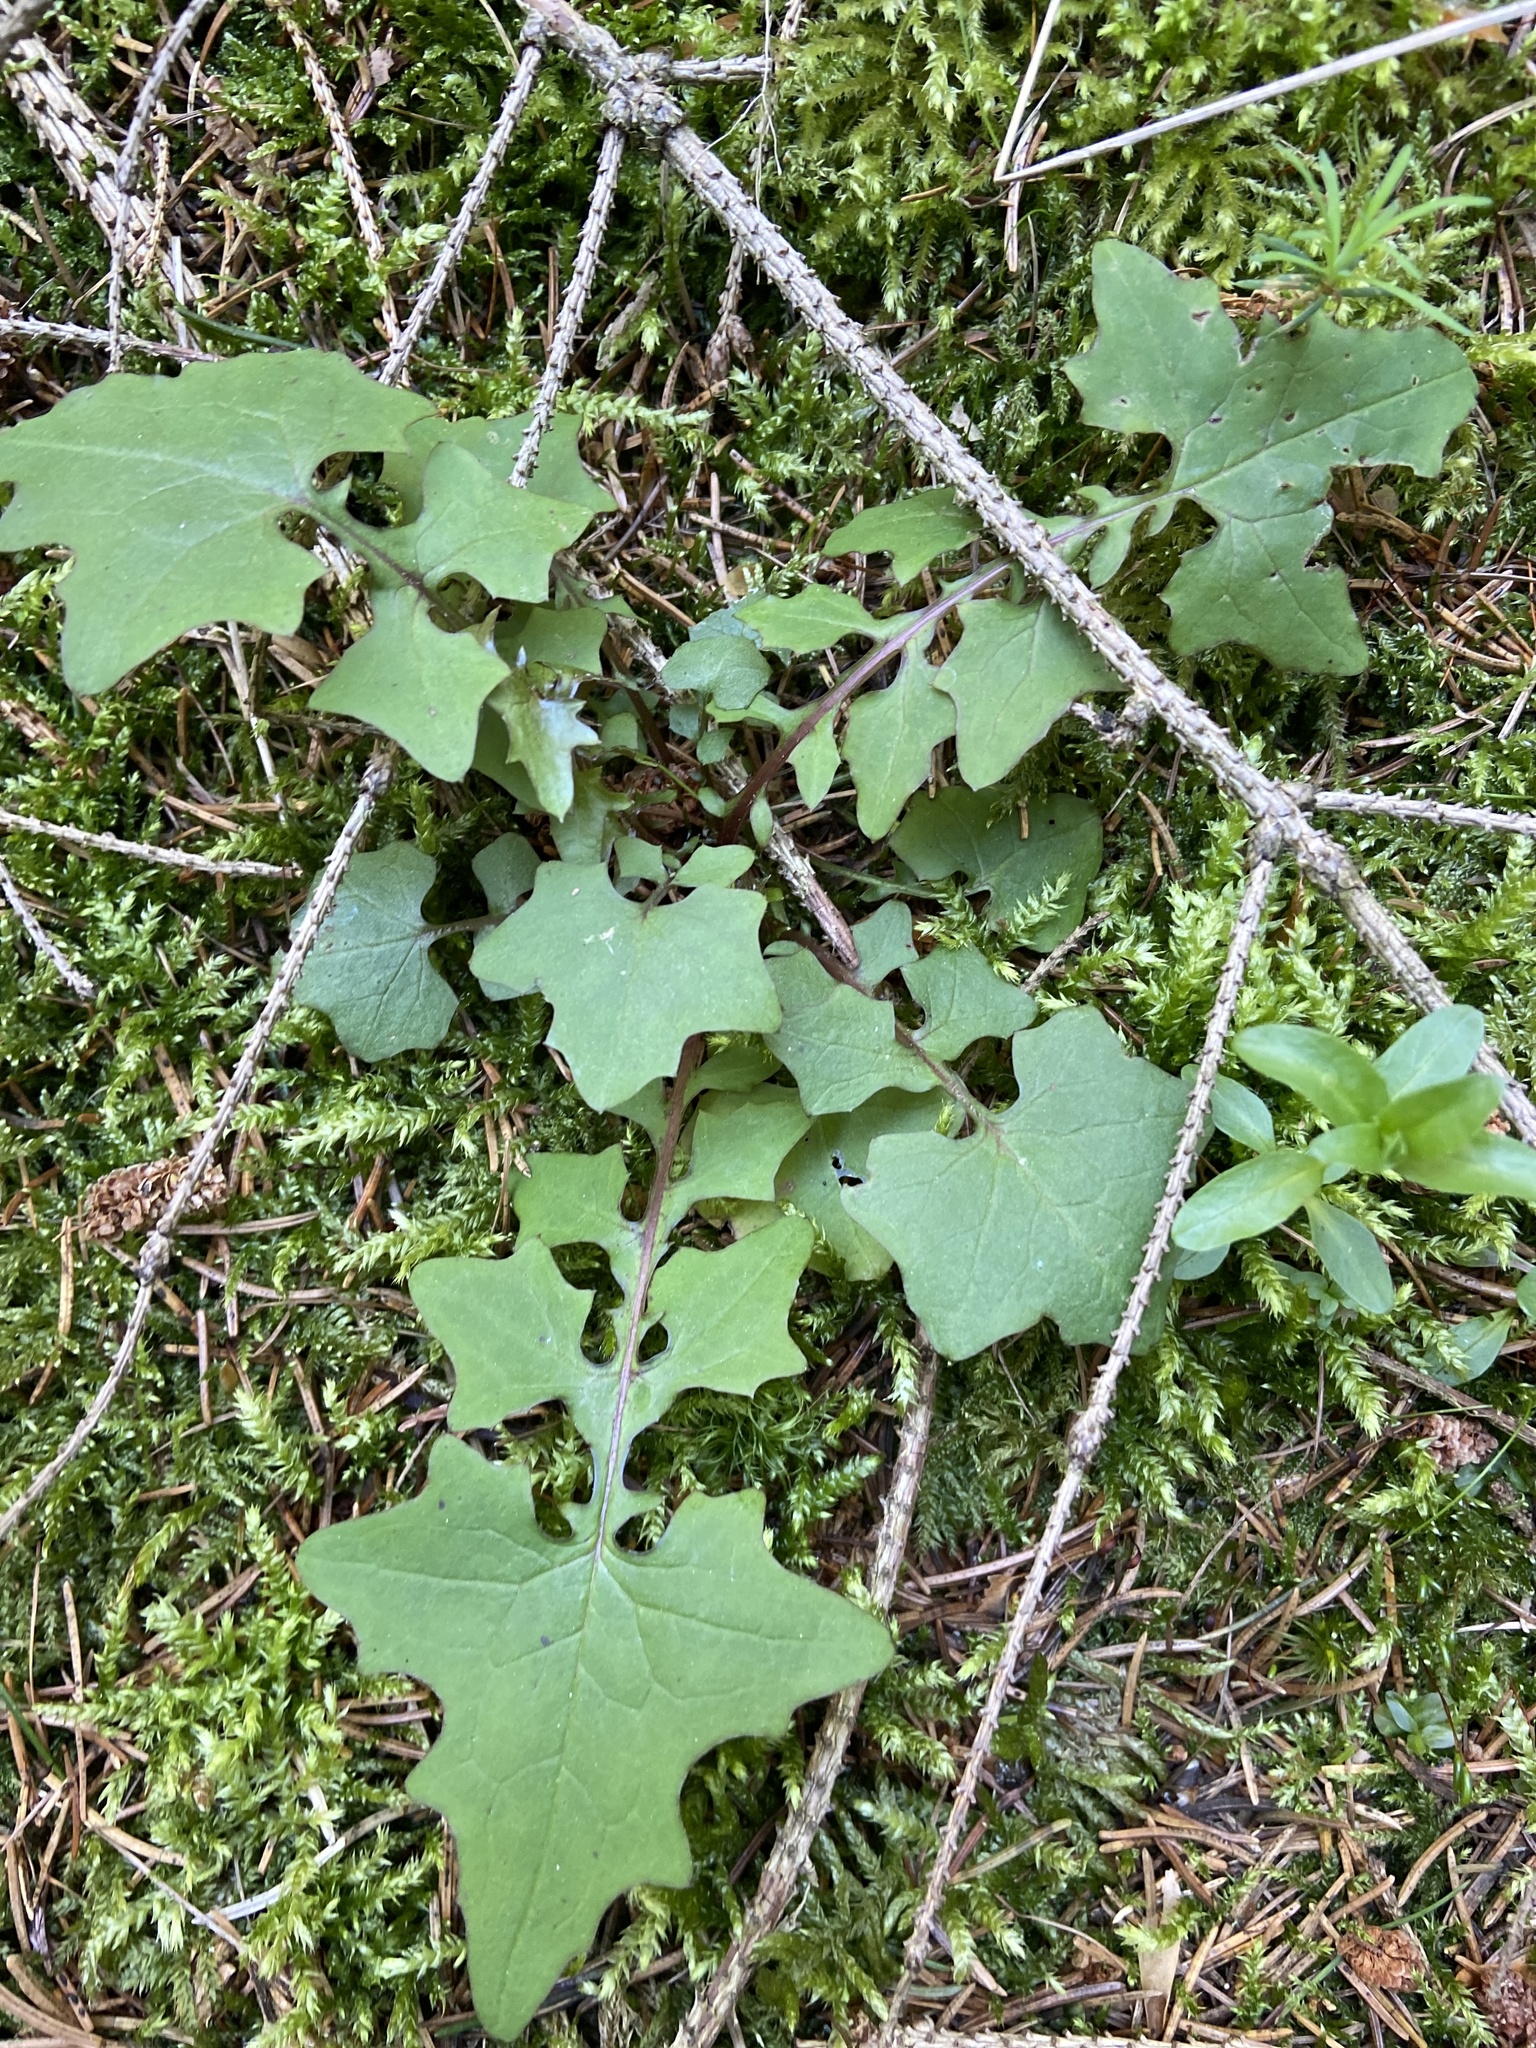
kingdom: Plantae
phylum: Tracheophyta
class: Magnoliopsida
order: Asterales
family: Asteraceae
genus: Mycelis
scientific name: Mycelis muralis
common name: Wall lettuce
